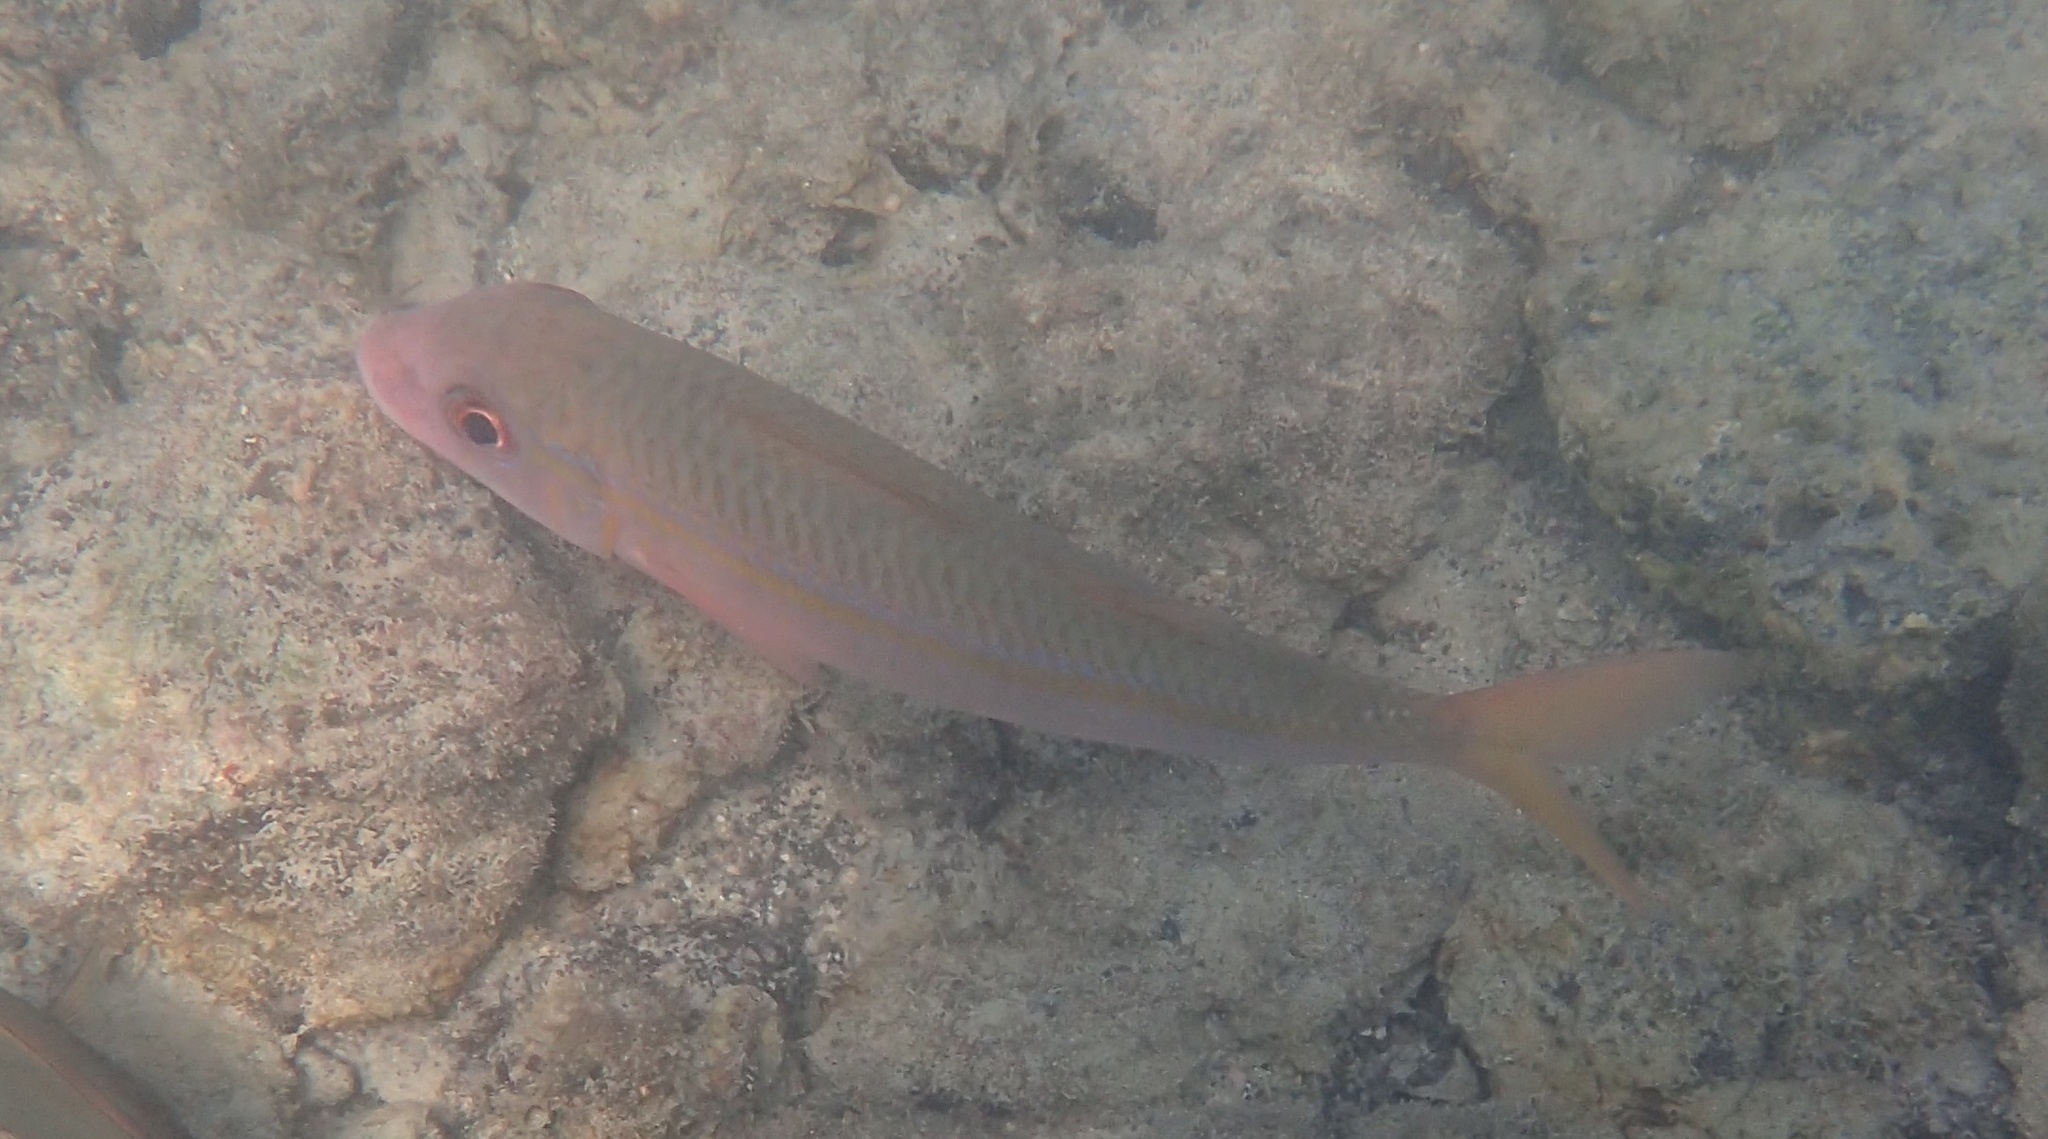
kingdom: Animalia
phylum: Chordata
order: Perciformes
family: Mullidae
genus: Mulloidichthys
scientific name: Mulloidichthys vanicolensis
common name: Yellowfin goatfish
